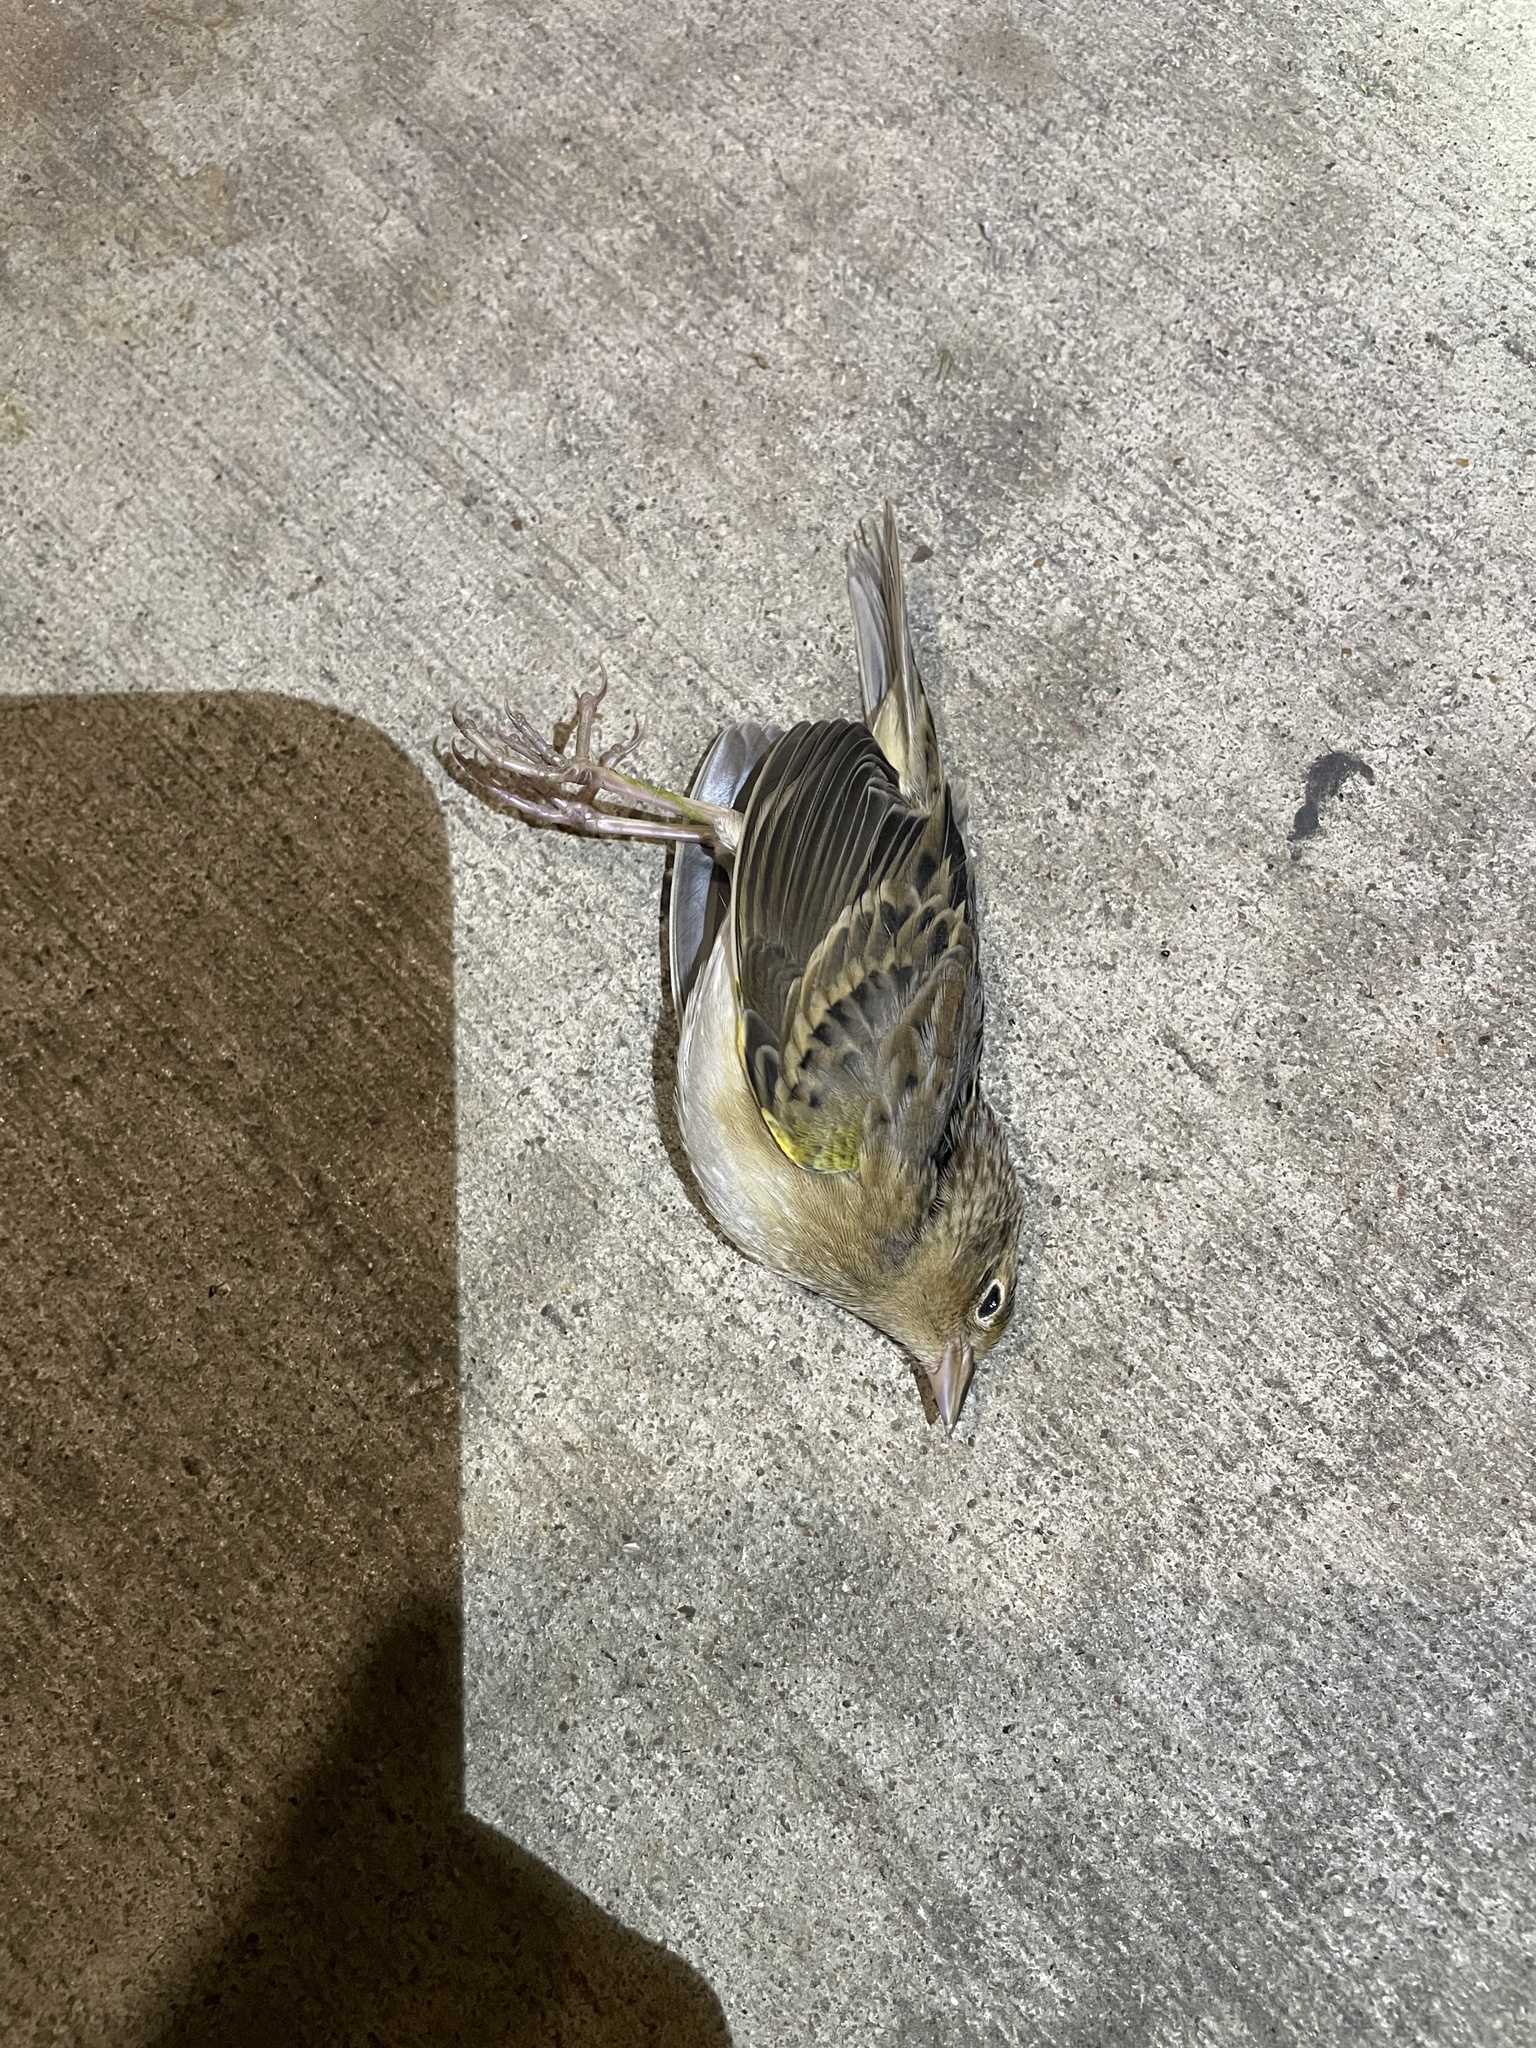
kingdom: Animalia
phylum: Chordata
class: Aves
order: Passeriformes
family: Passerellidae
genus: Ammodramus
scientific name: Ammodramus savannarum
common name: Grasshopper sparrow
